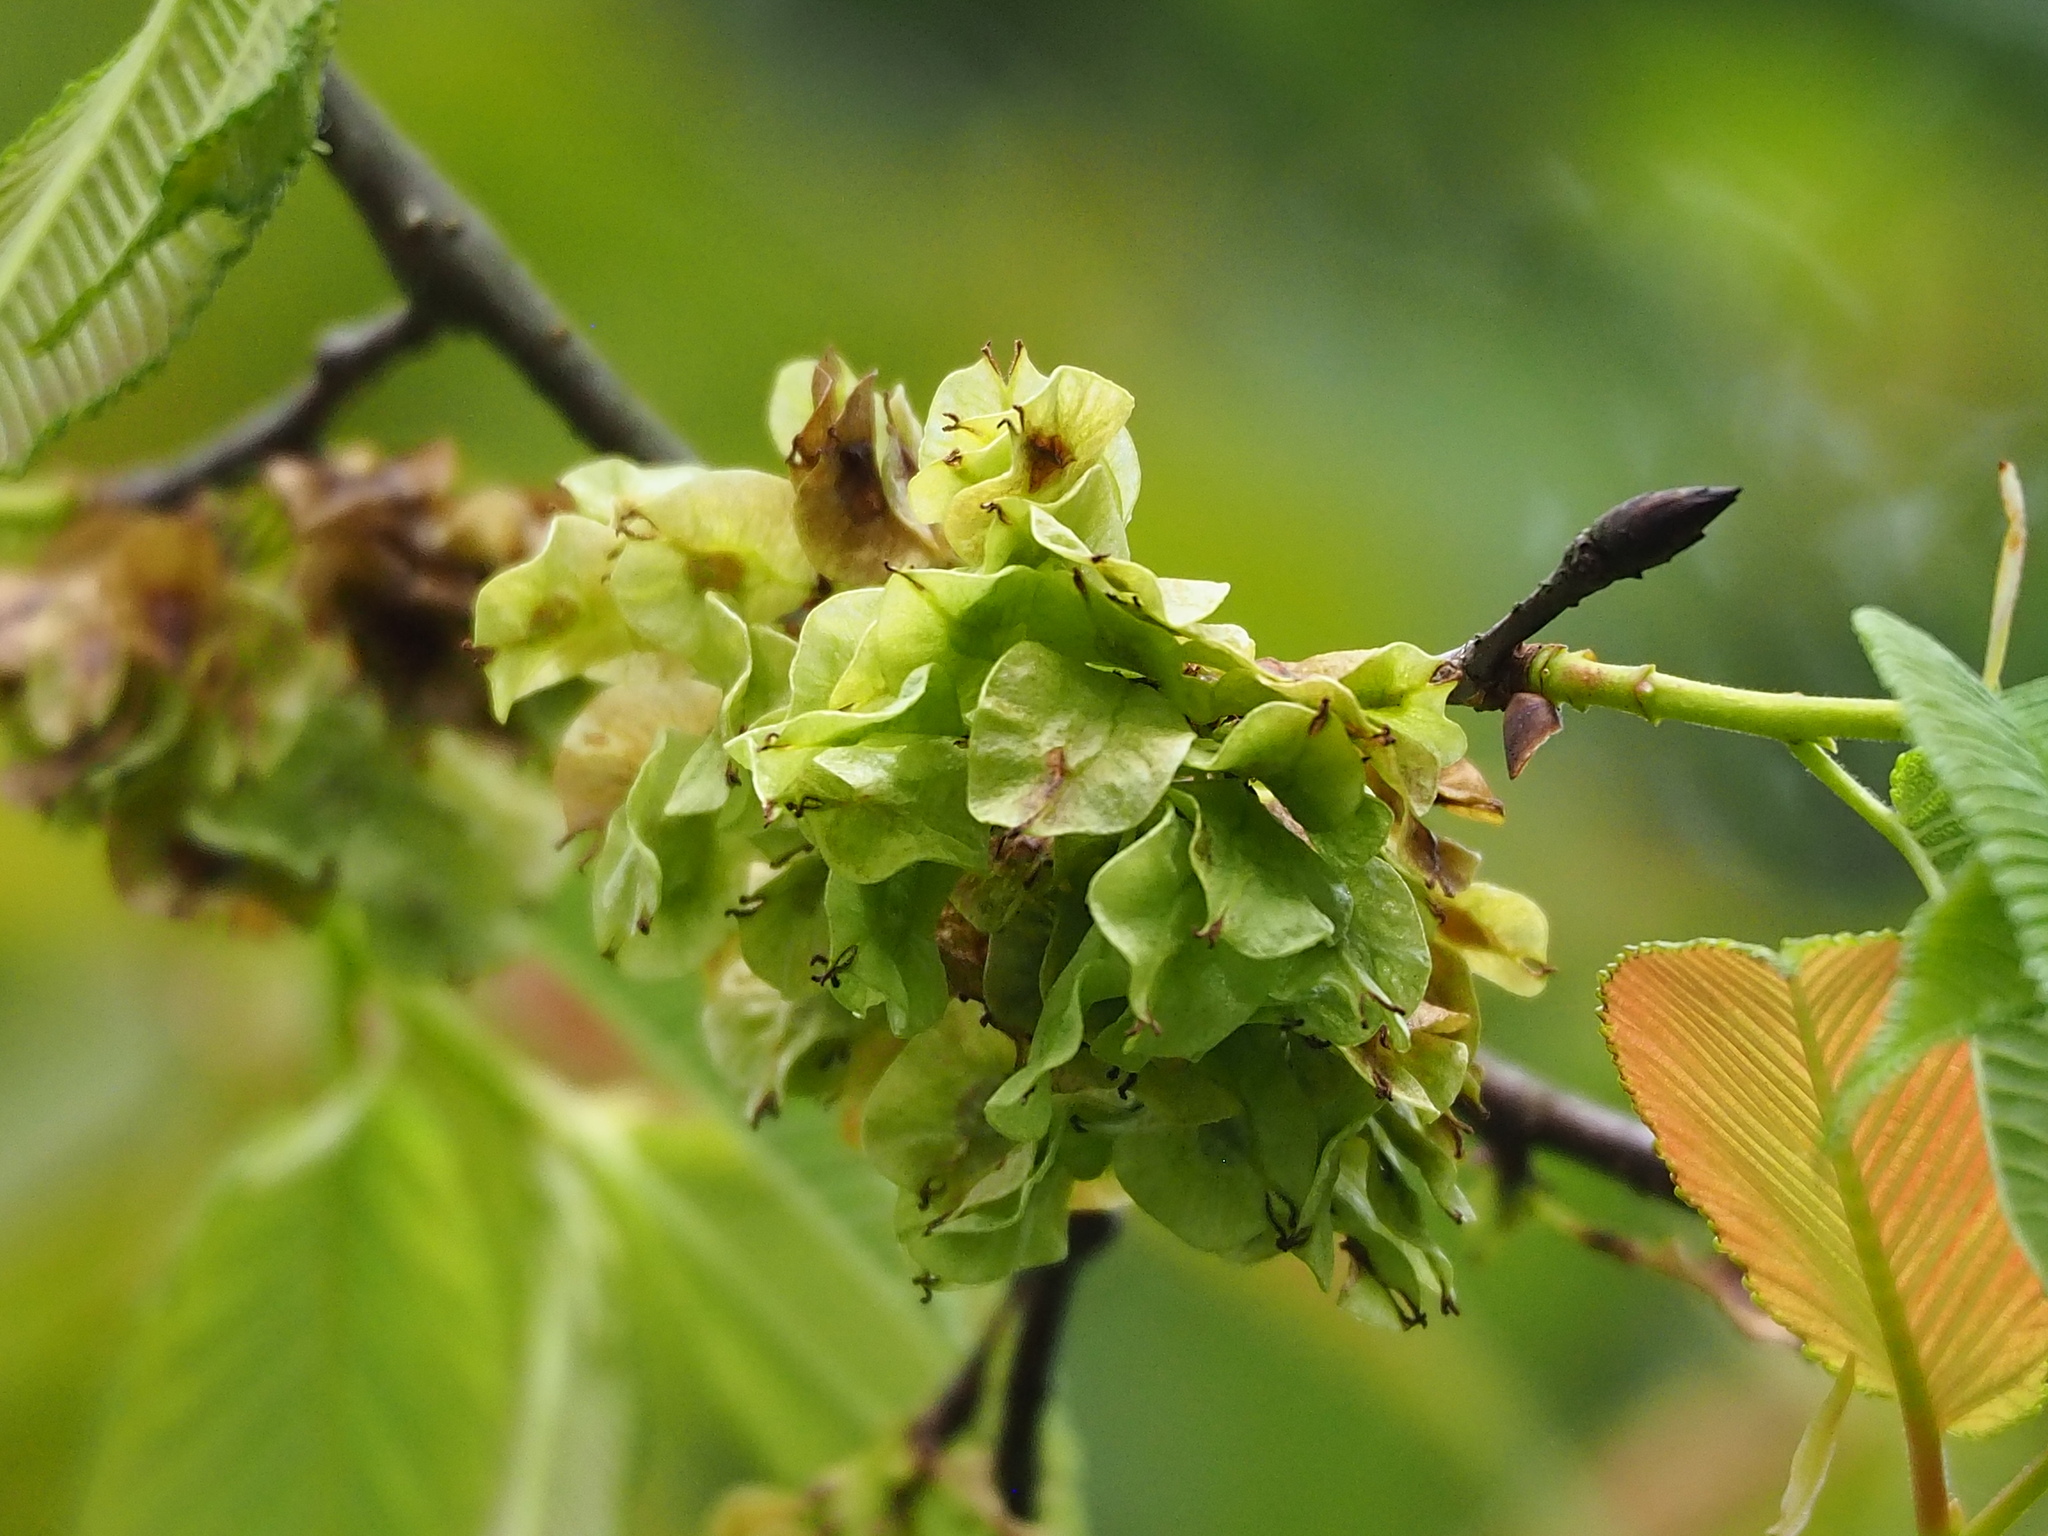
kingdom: Plantae
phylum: Tracheophyta
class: Magnoliopsida
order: Rosales
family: Ulmaceae
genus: Ulmus
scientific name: Ulmus uyematsui
